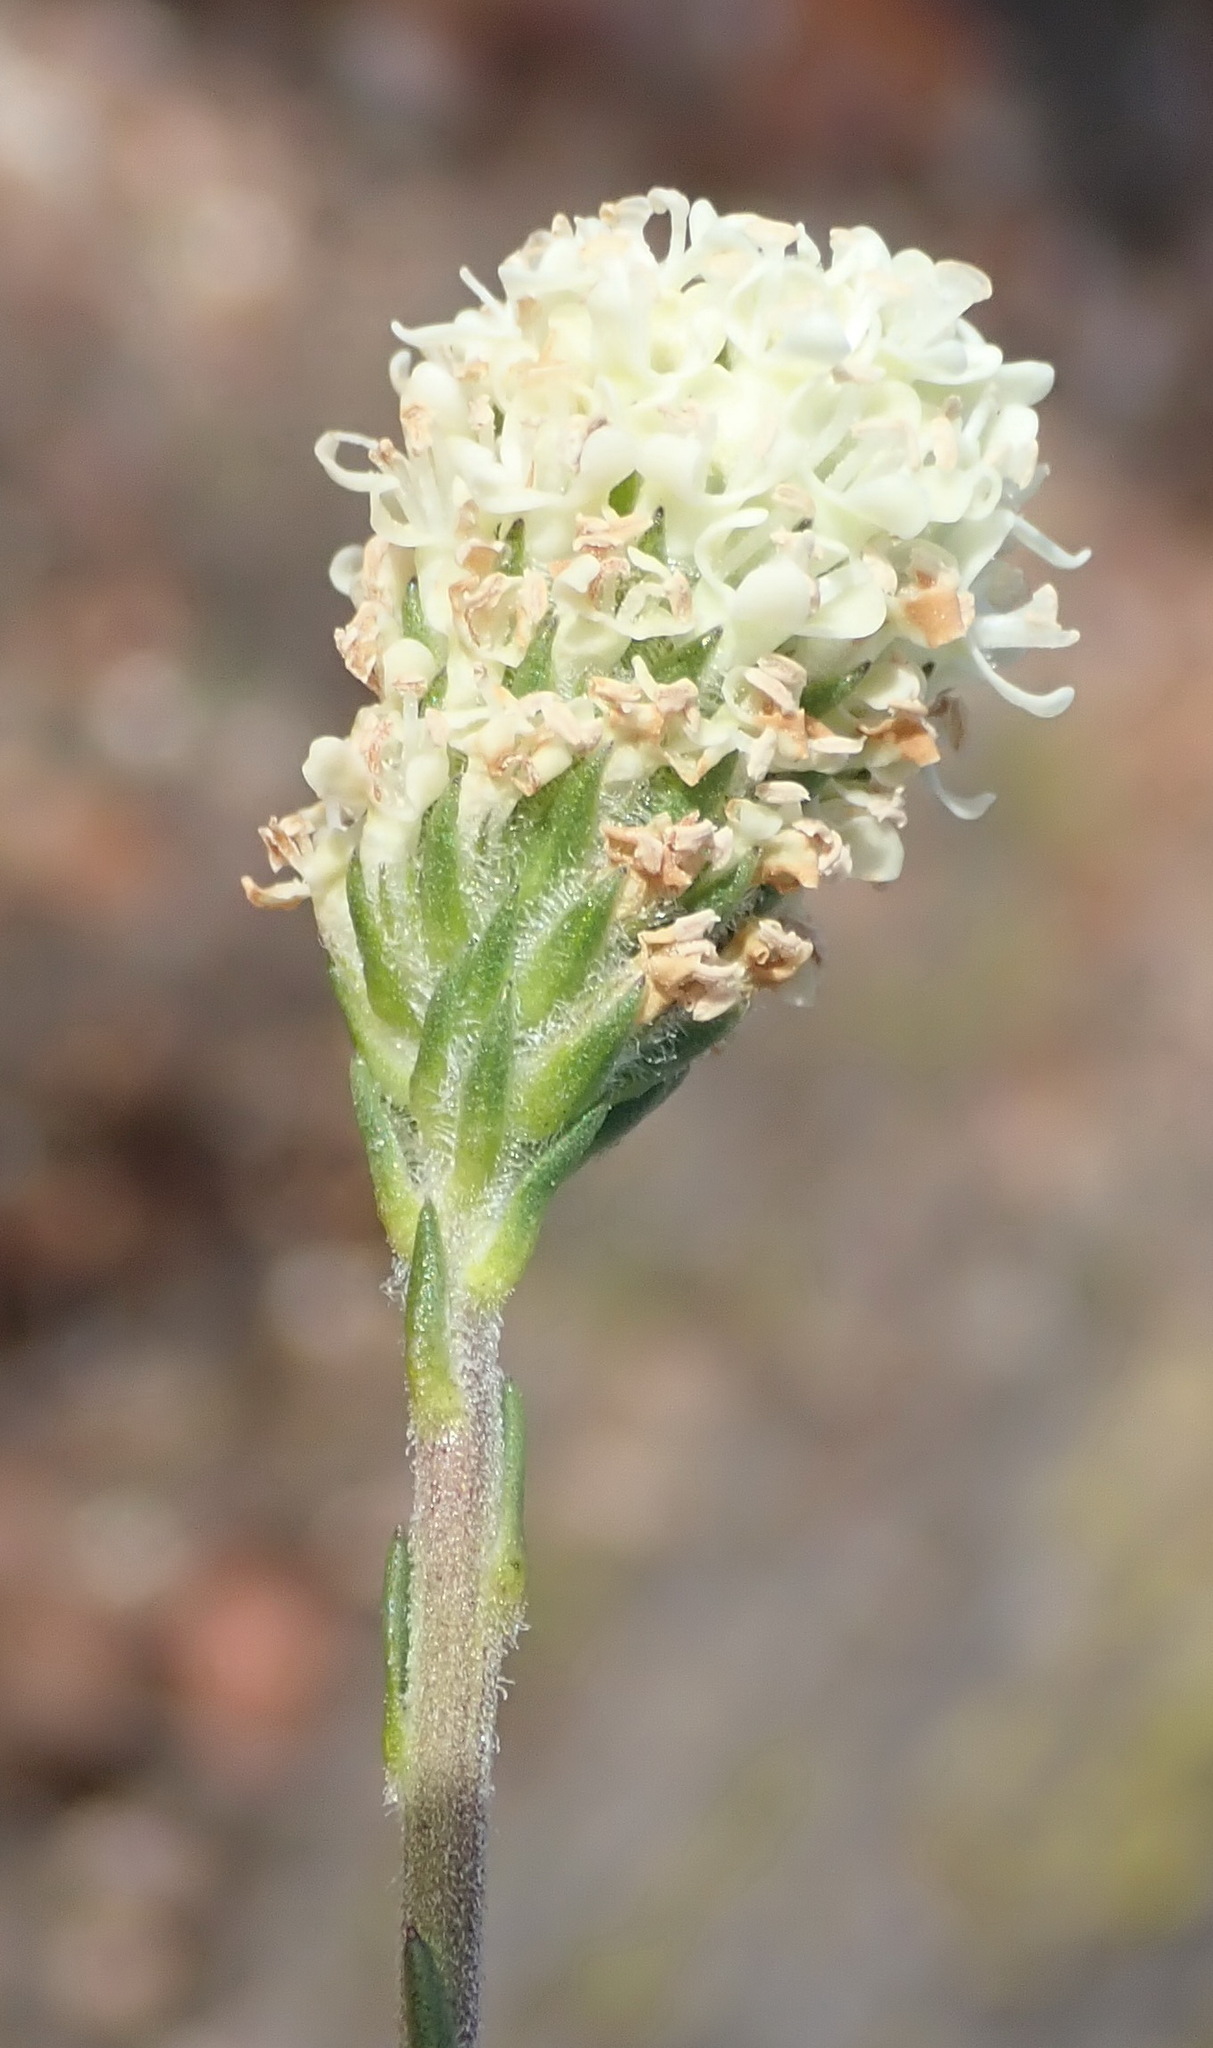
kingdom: Plantae
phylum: Tracheophyta
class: Magnoliopsida
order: Lamiales
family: Scrophulariaceae
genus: Phyllopodium
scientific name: Phyllopodium elegans
